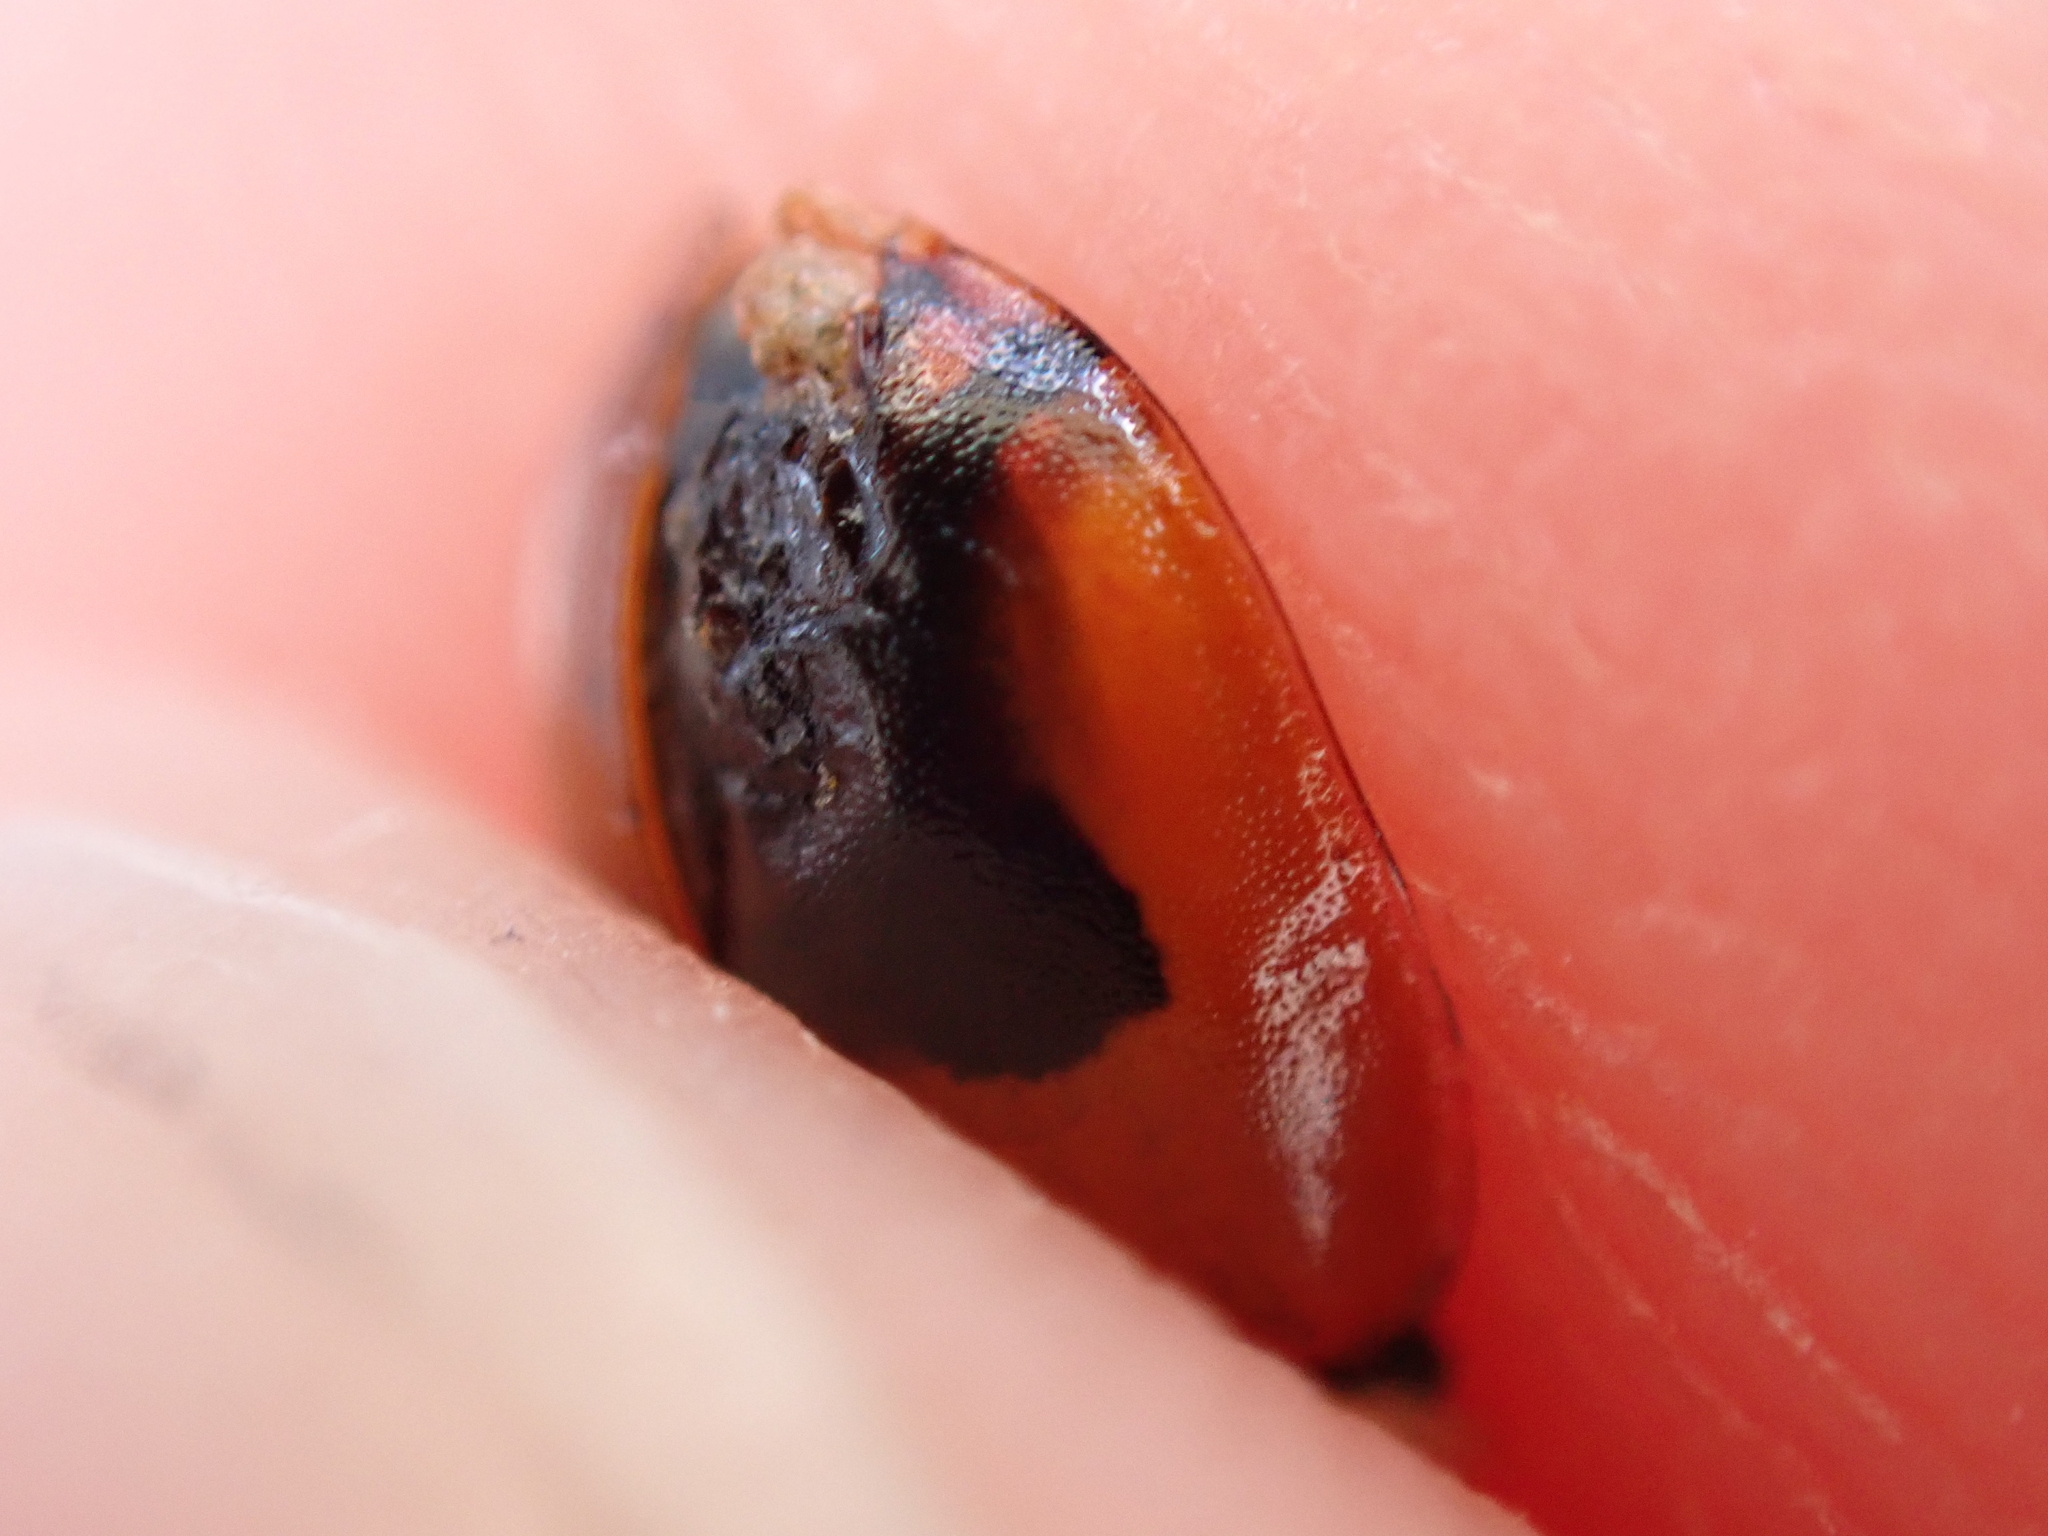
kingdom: Animalia
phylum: Arthropoda
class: Insecta
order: Coleoptera
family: Coccinellidae
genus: Adalia
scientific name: Adalia bipunctata
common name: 2-spot ladybird
